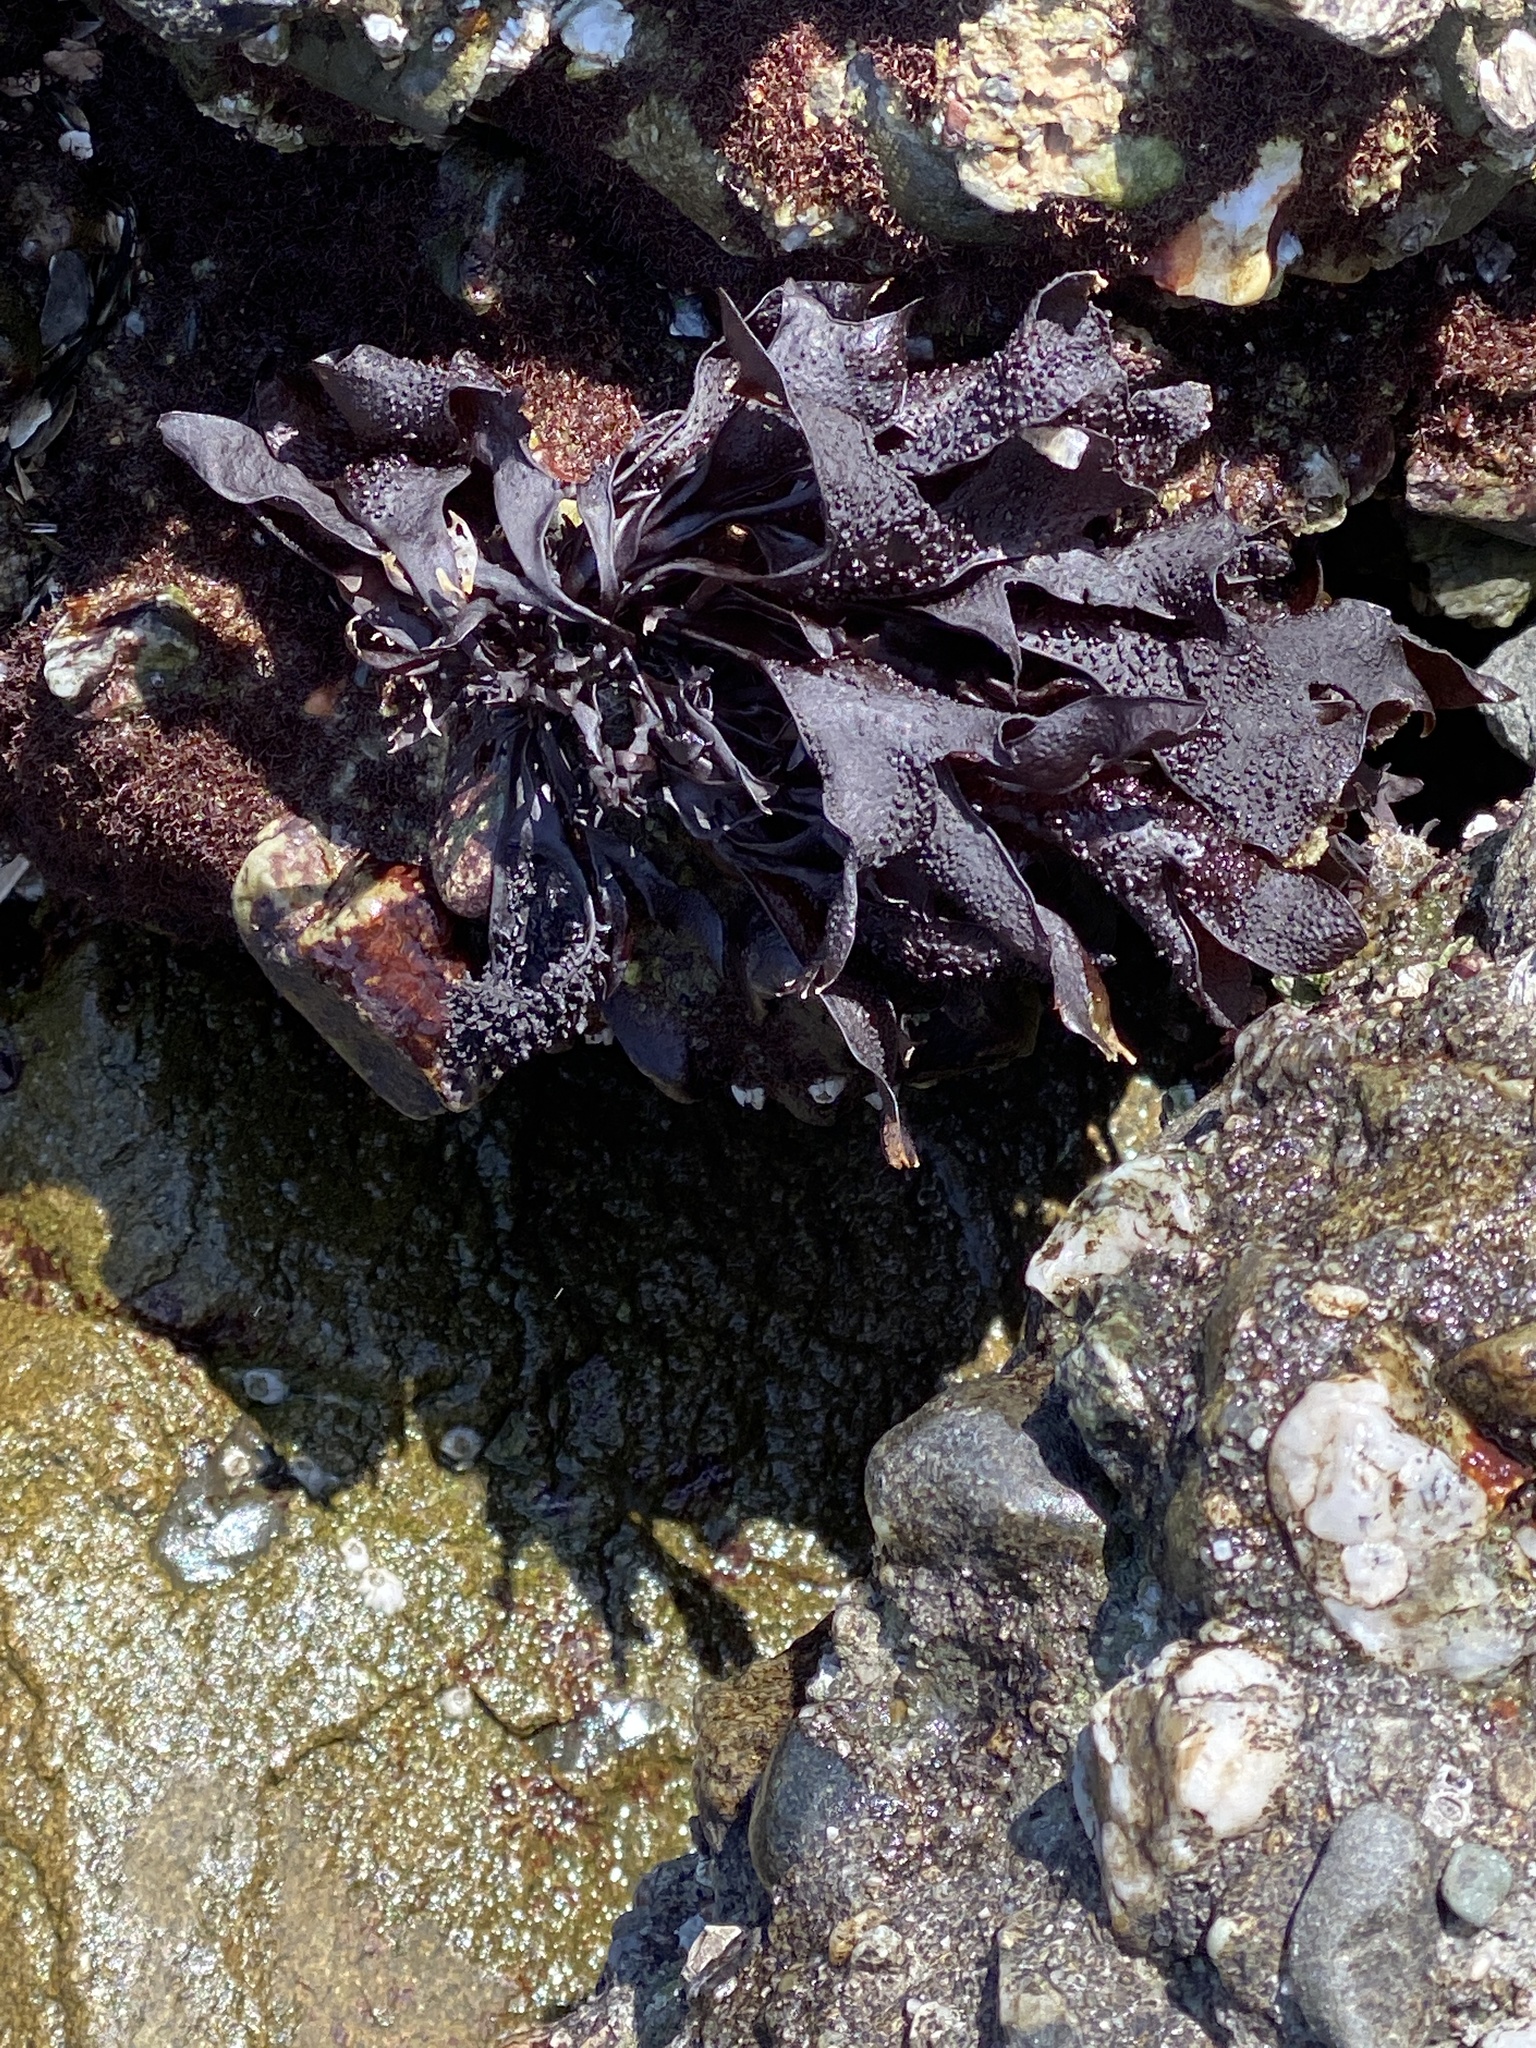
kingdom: Plantae
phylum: Rhodophyta
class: Florideophyceae
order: Gigartinales
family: Phyllophoraceae
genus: Mastocarpus
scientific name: Mastocarpus papillatus
